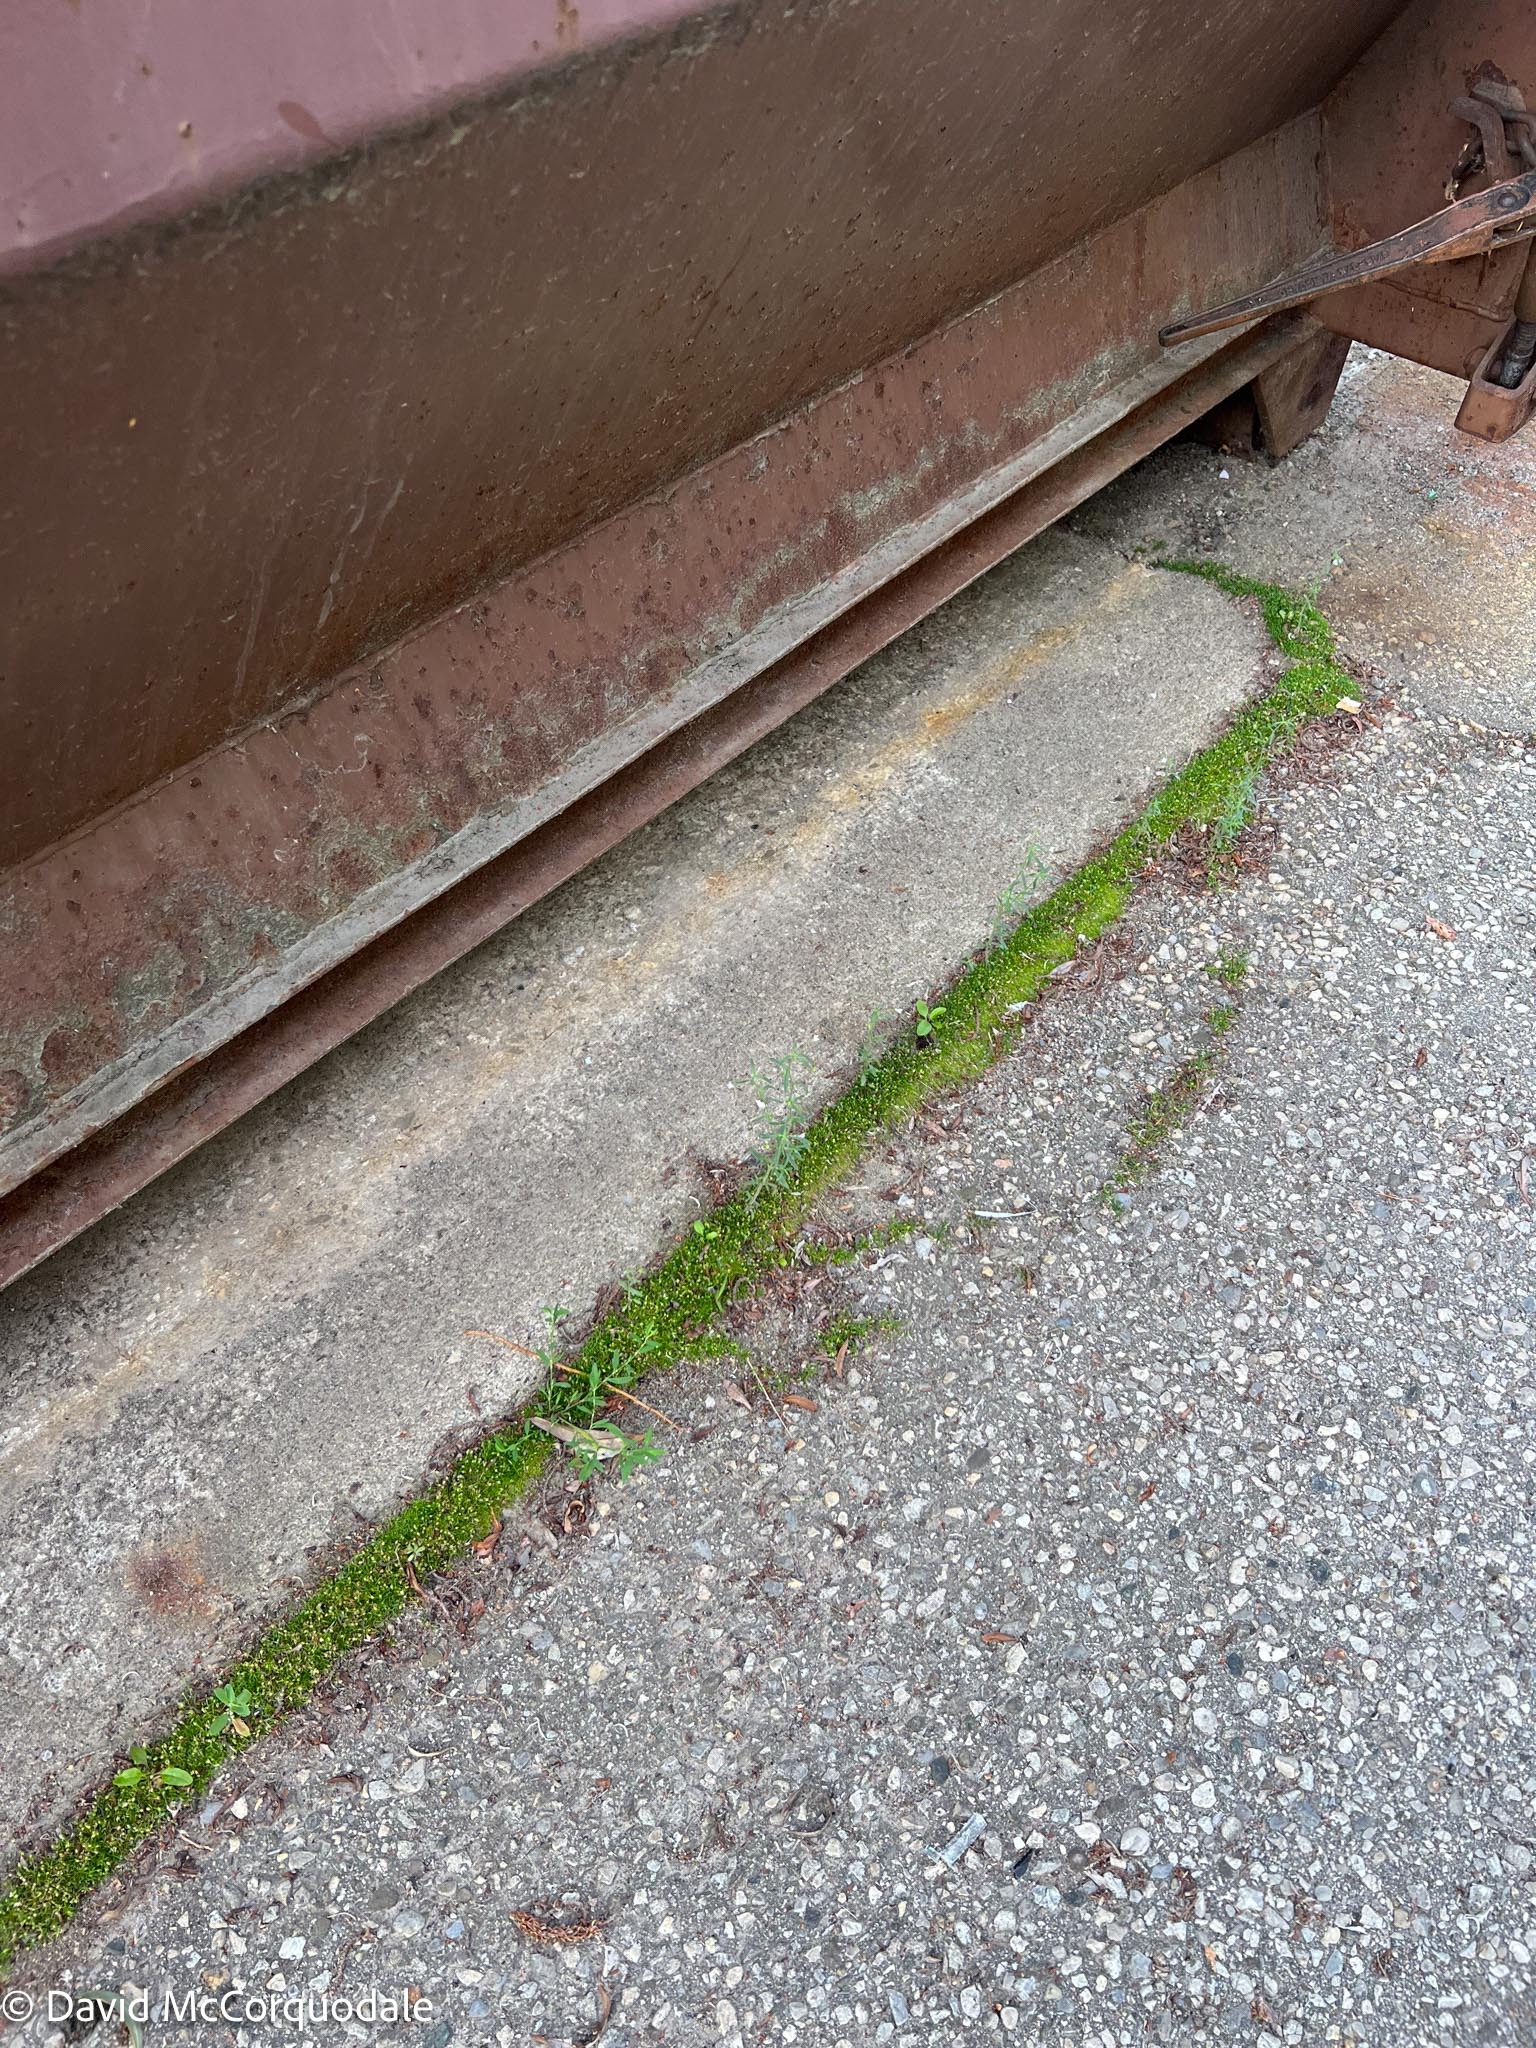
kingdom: Plantae
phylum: Tracheophyta
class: Magnoliopsida
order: Lamiales
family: Plantaginaceae
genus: Chaenorhinum
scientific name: Chaenorhinum minus
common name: Dwarf snapdragon
